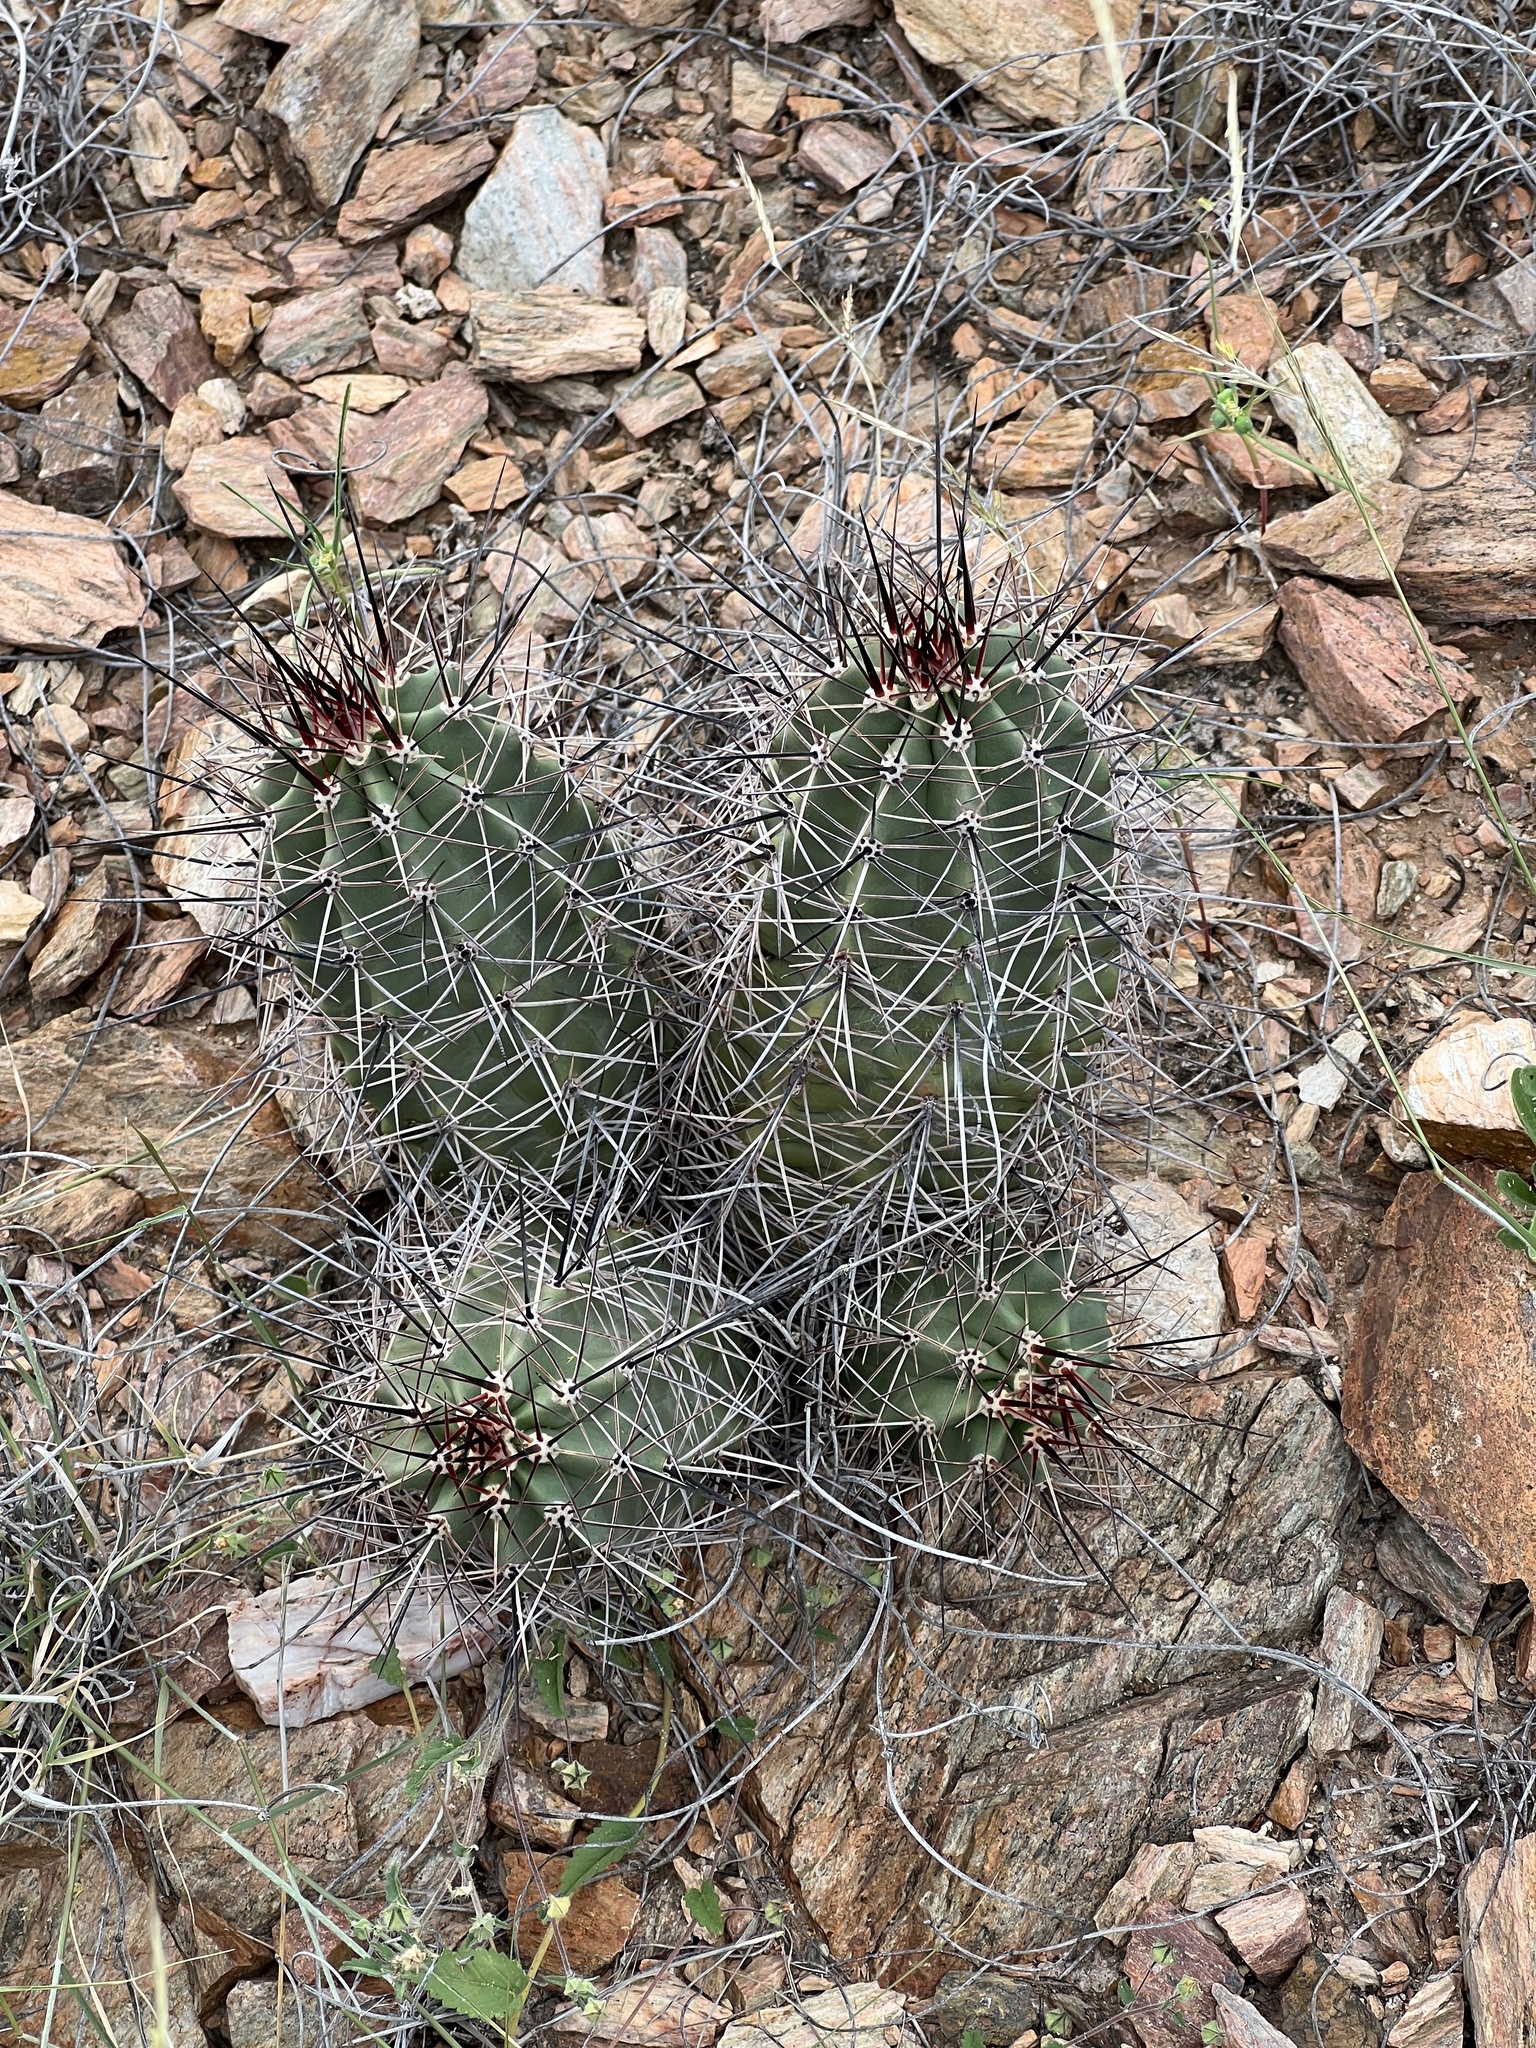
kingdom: Plantae
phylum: Tracheophyta
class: Magnoliopsida
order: Caryophyllales
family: Cactaceae
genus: Echinocereus
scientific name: Echinocereus coccineus
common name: Scarlet hedgehog cactus
